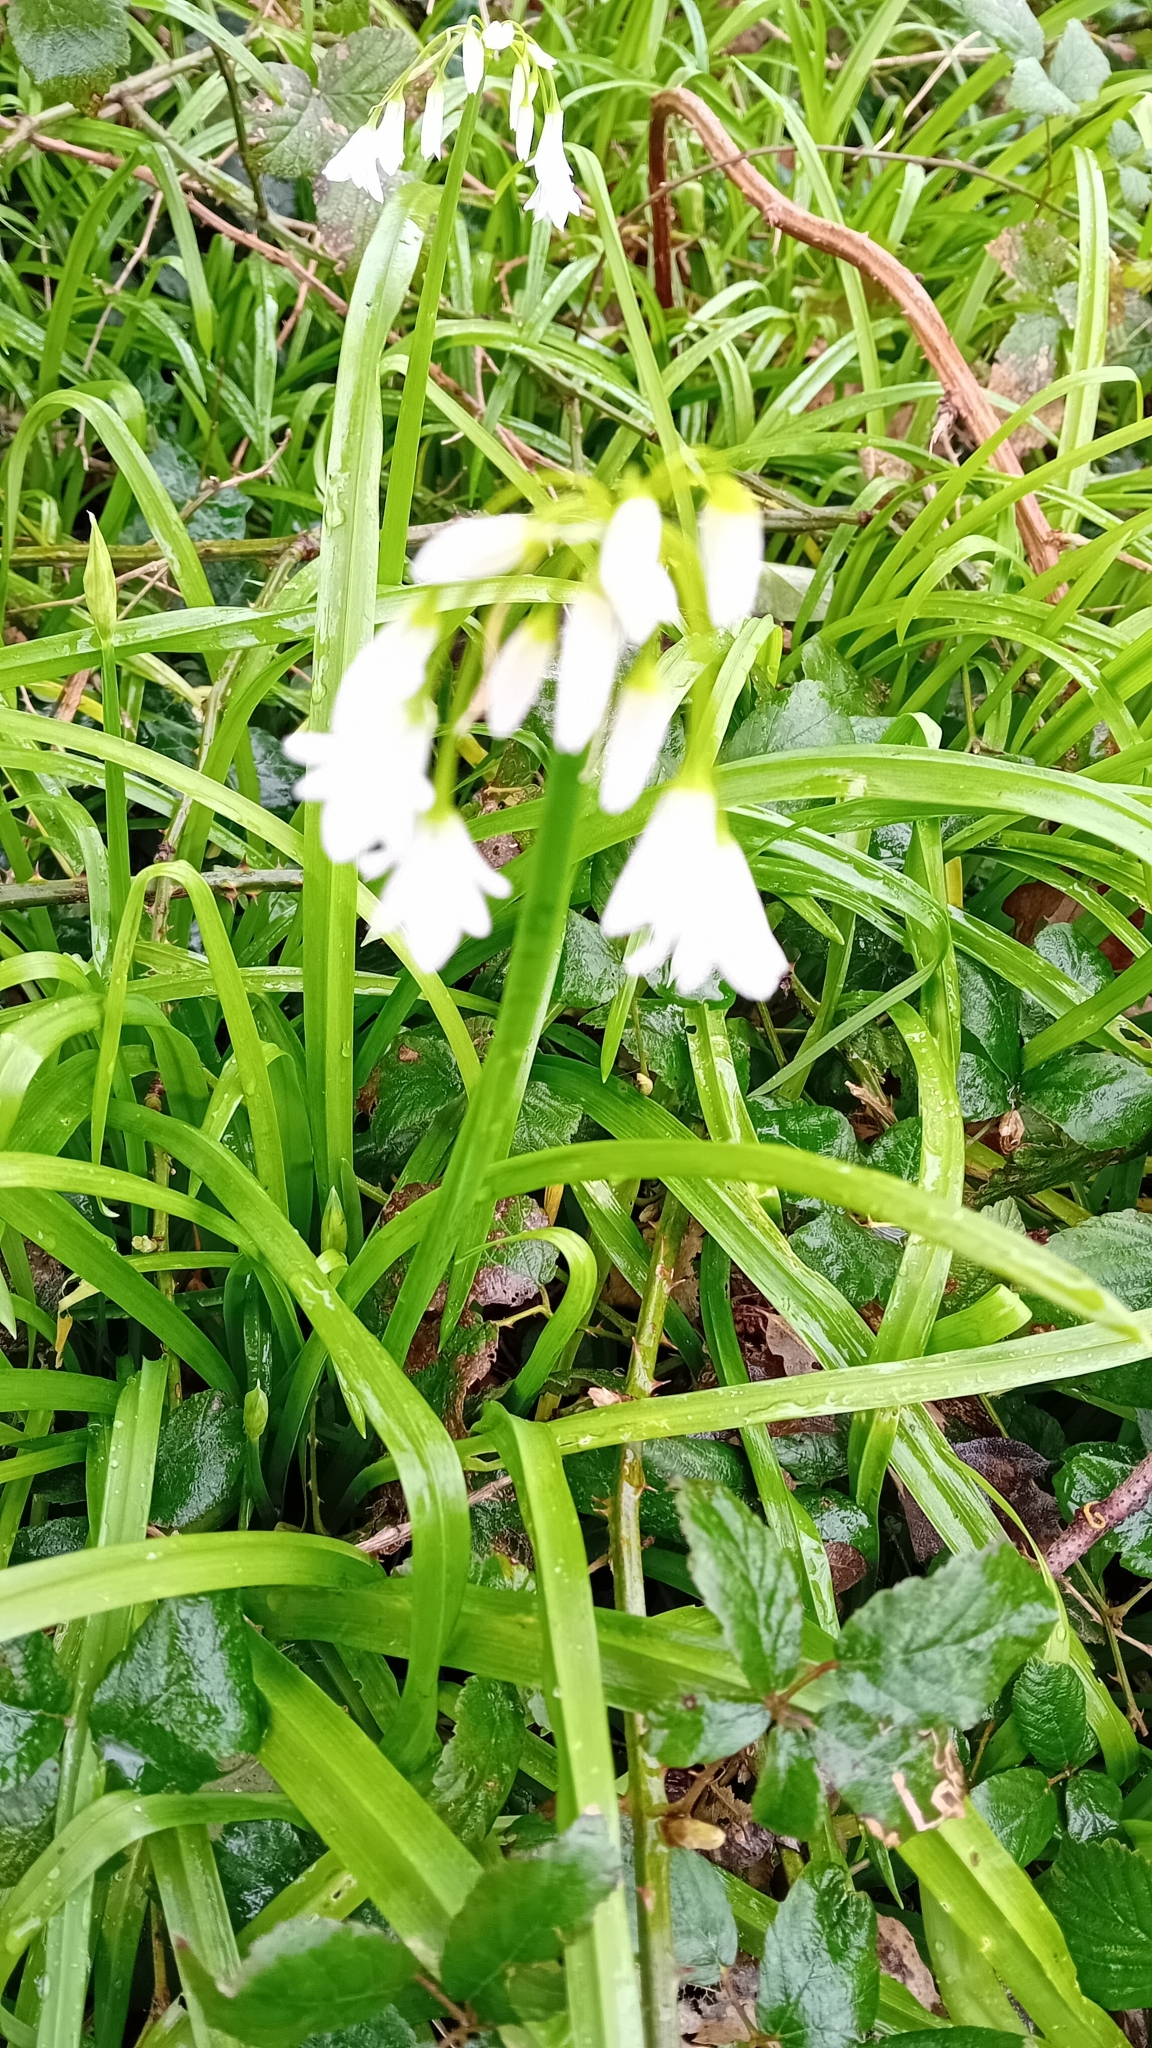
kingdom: Plantae
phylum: Tracheophyta
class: Liliopsida
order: Asparagales
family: Amaryllidaceae
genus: Allium
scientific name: Allium triquetrum
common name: Three-cornered garlic
